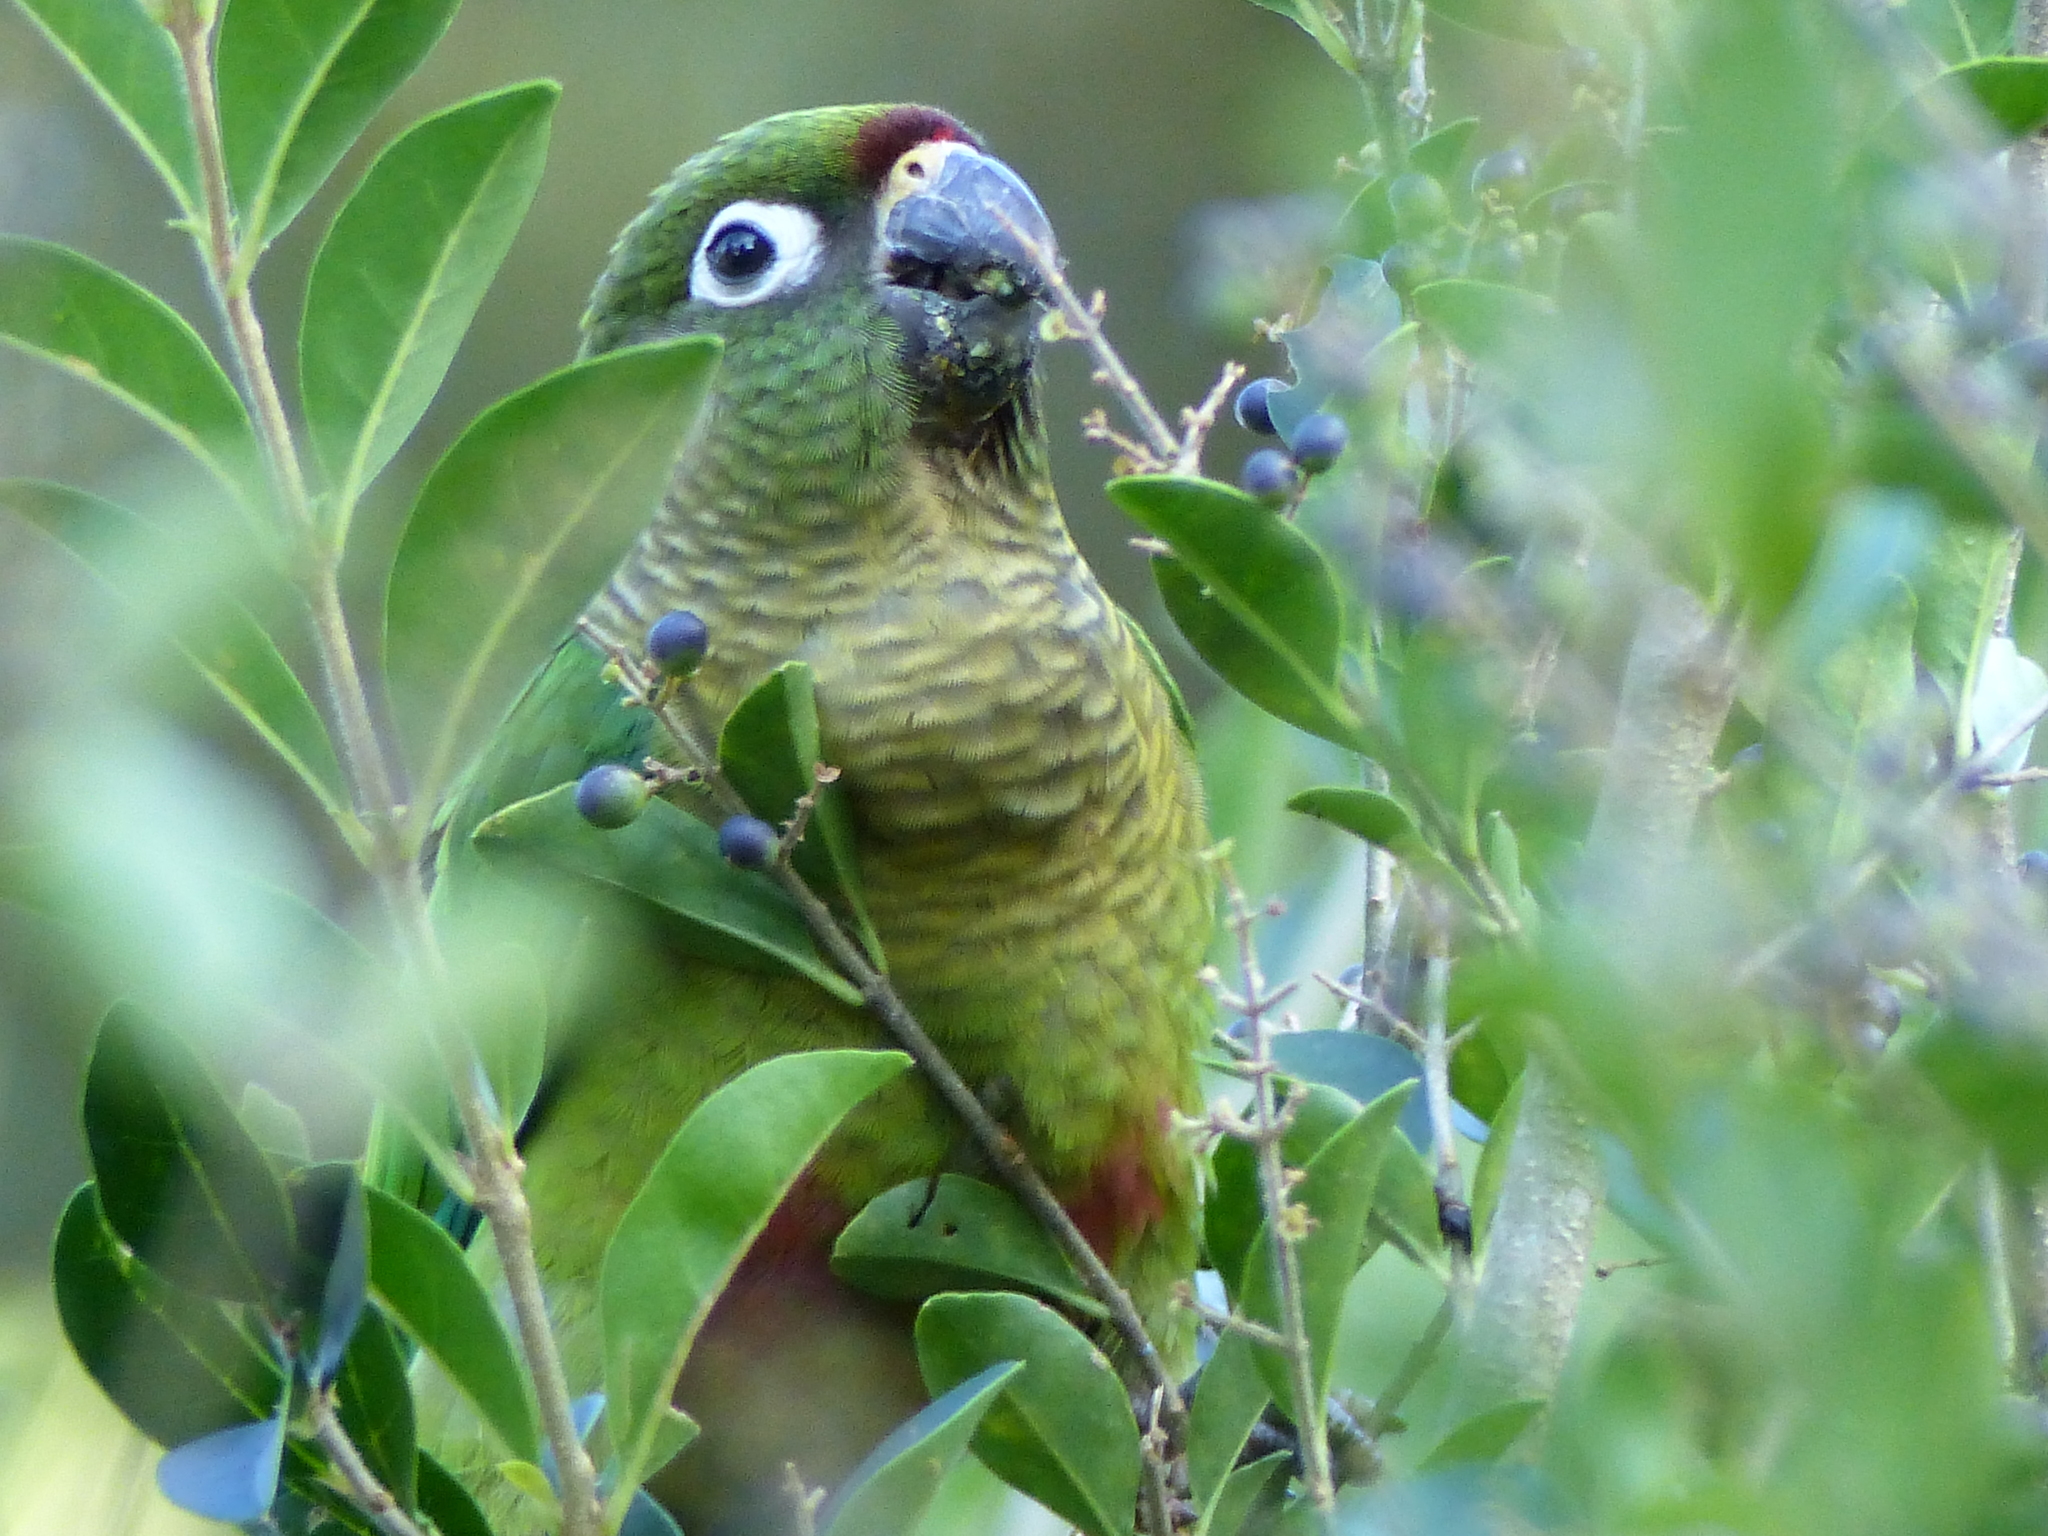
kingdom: Animalia
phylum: Chordata
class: Aves
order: Psittaciformes
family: Psittacidae
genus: Pyrrhura
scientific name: Pyrrhura frontalis
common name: Maroon-bellied parakeet
